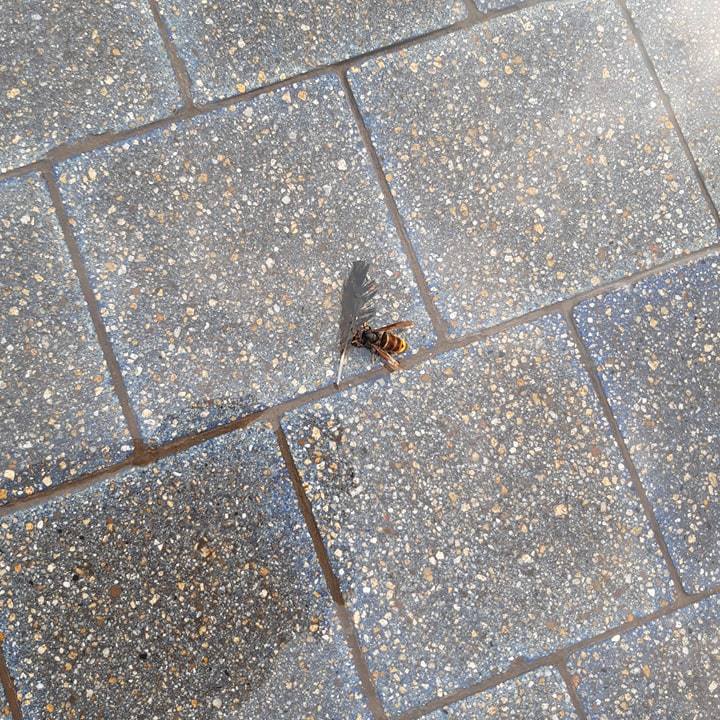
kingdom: Animalia
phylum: Arthropoda
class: Insecta
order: Hymenoptera
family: Vespidae
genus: Vespa
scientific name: Vespa velutina
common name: Asian hornet
